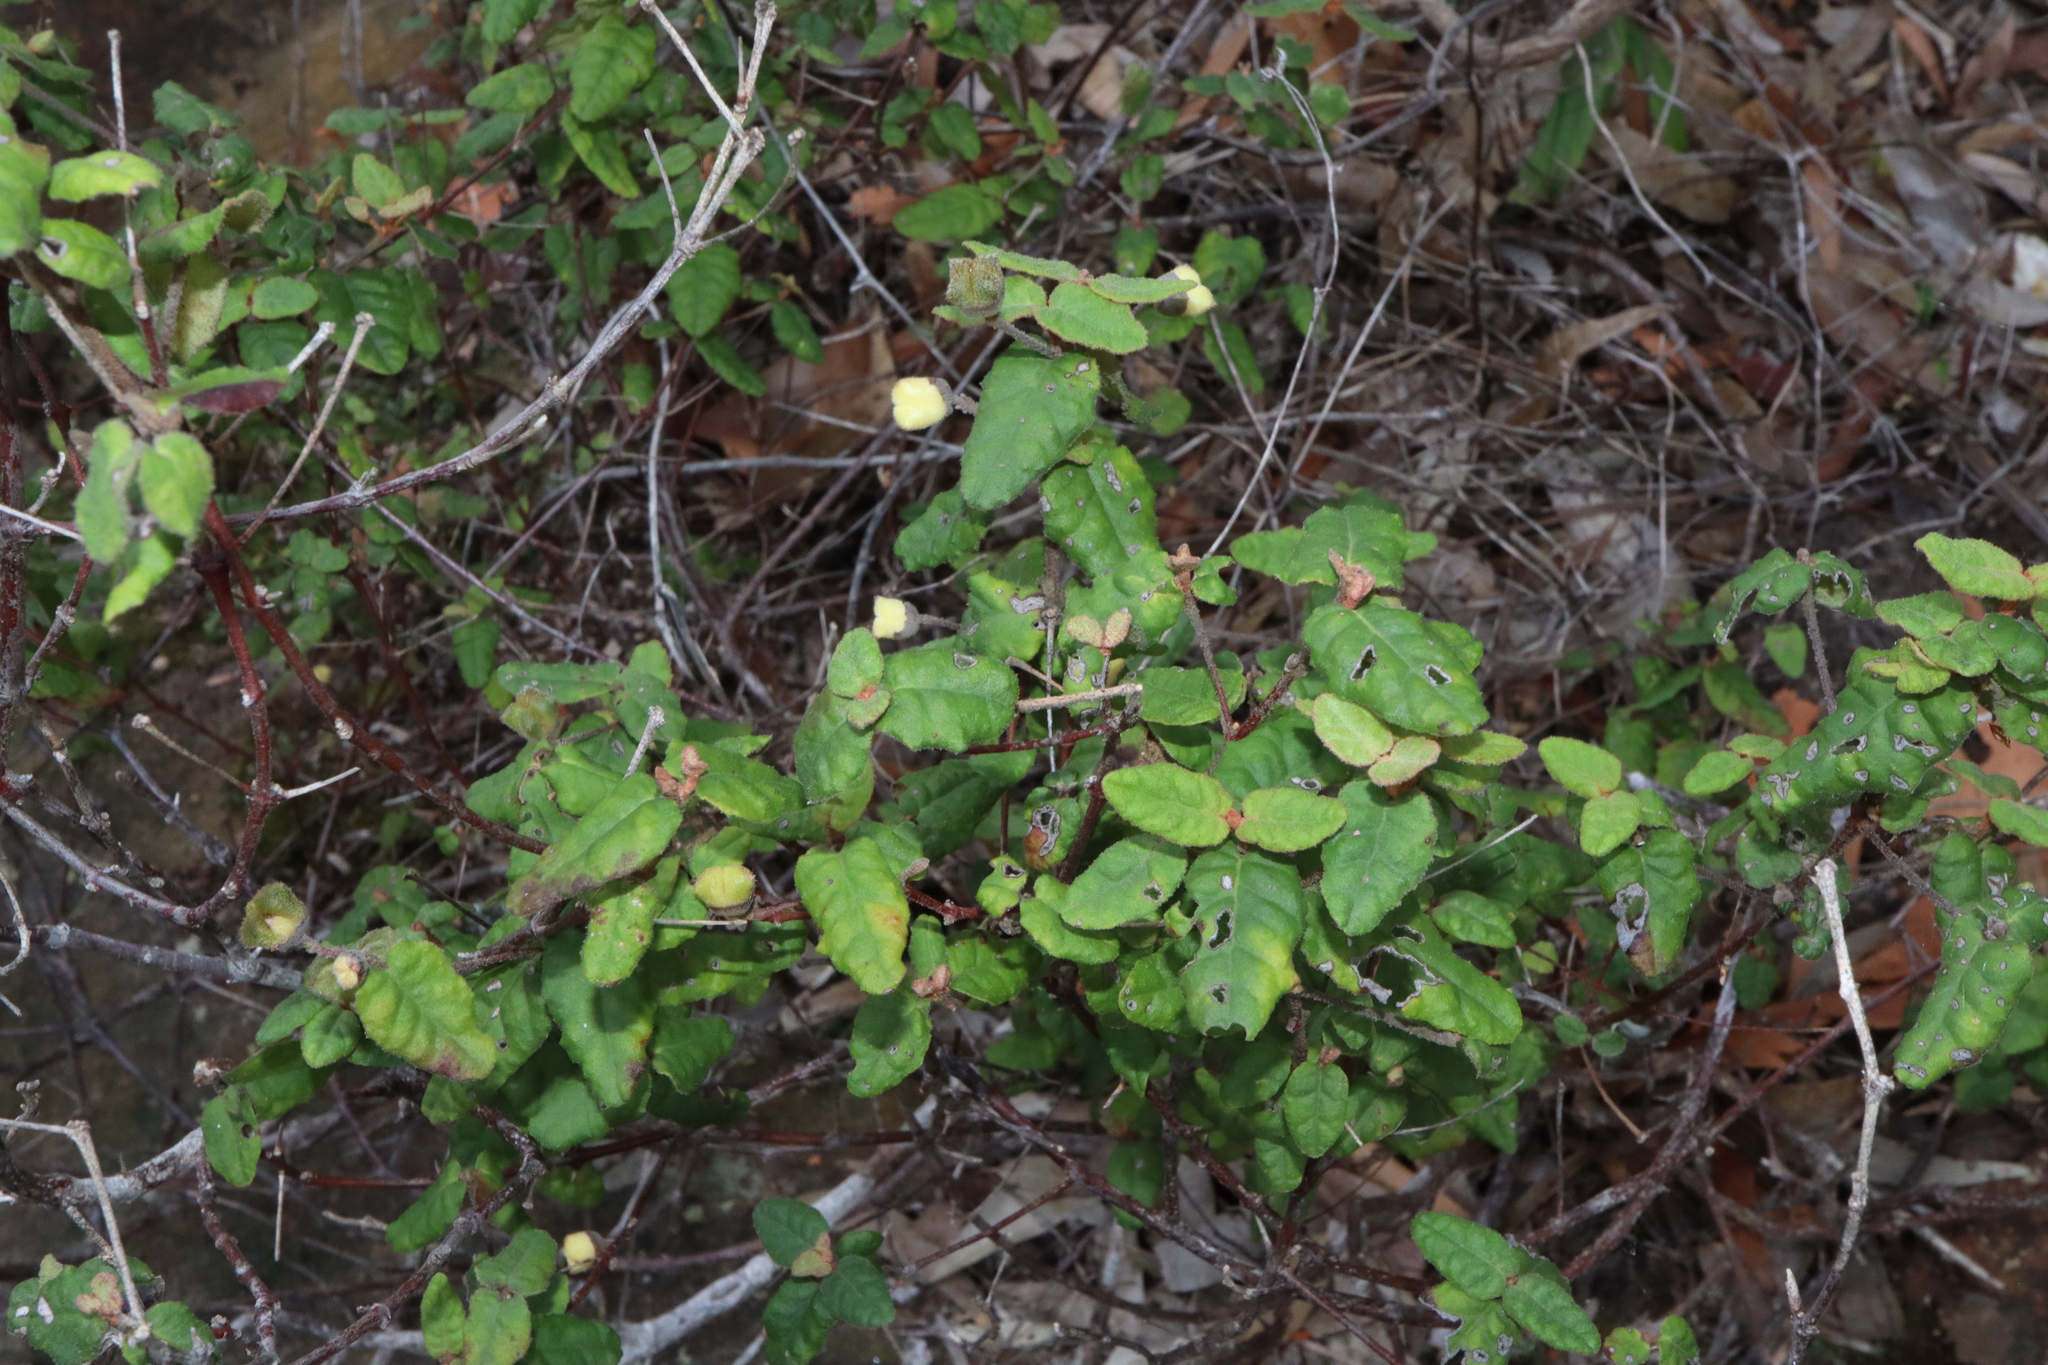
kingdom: Plantae
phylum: Tracheophyta
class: Magnoliopsida
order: Sapindales
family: Rutaceae
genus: Correa
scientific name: Correa reflexa
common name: Common correa
